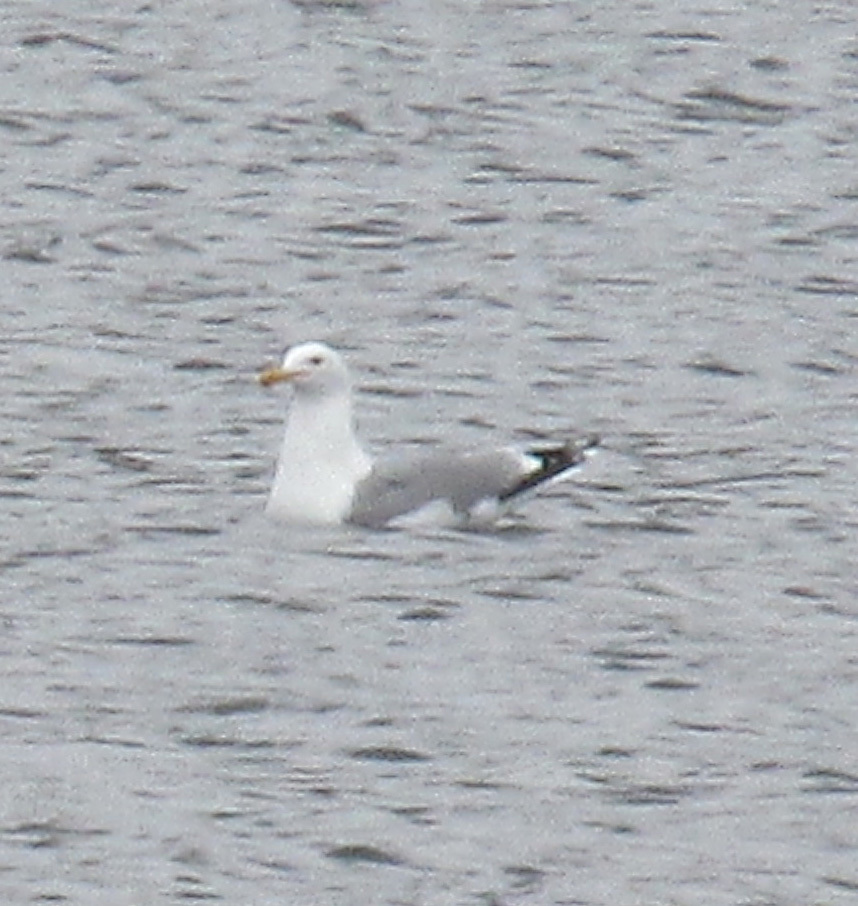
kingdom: Animalia
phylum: Chordata
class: Aves
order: Charadriiformes
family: Laridae
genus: Larus
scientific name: Larus californicus
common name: California gull
